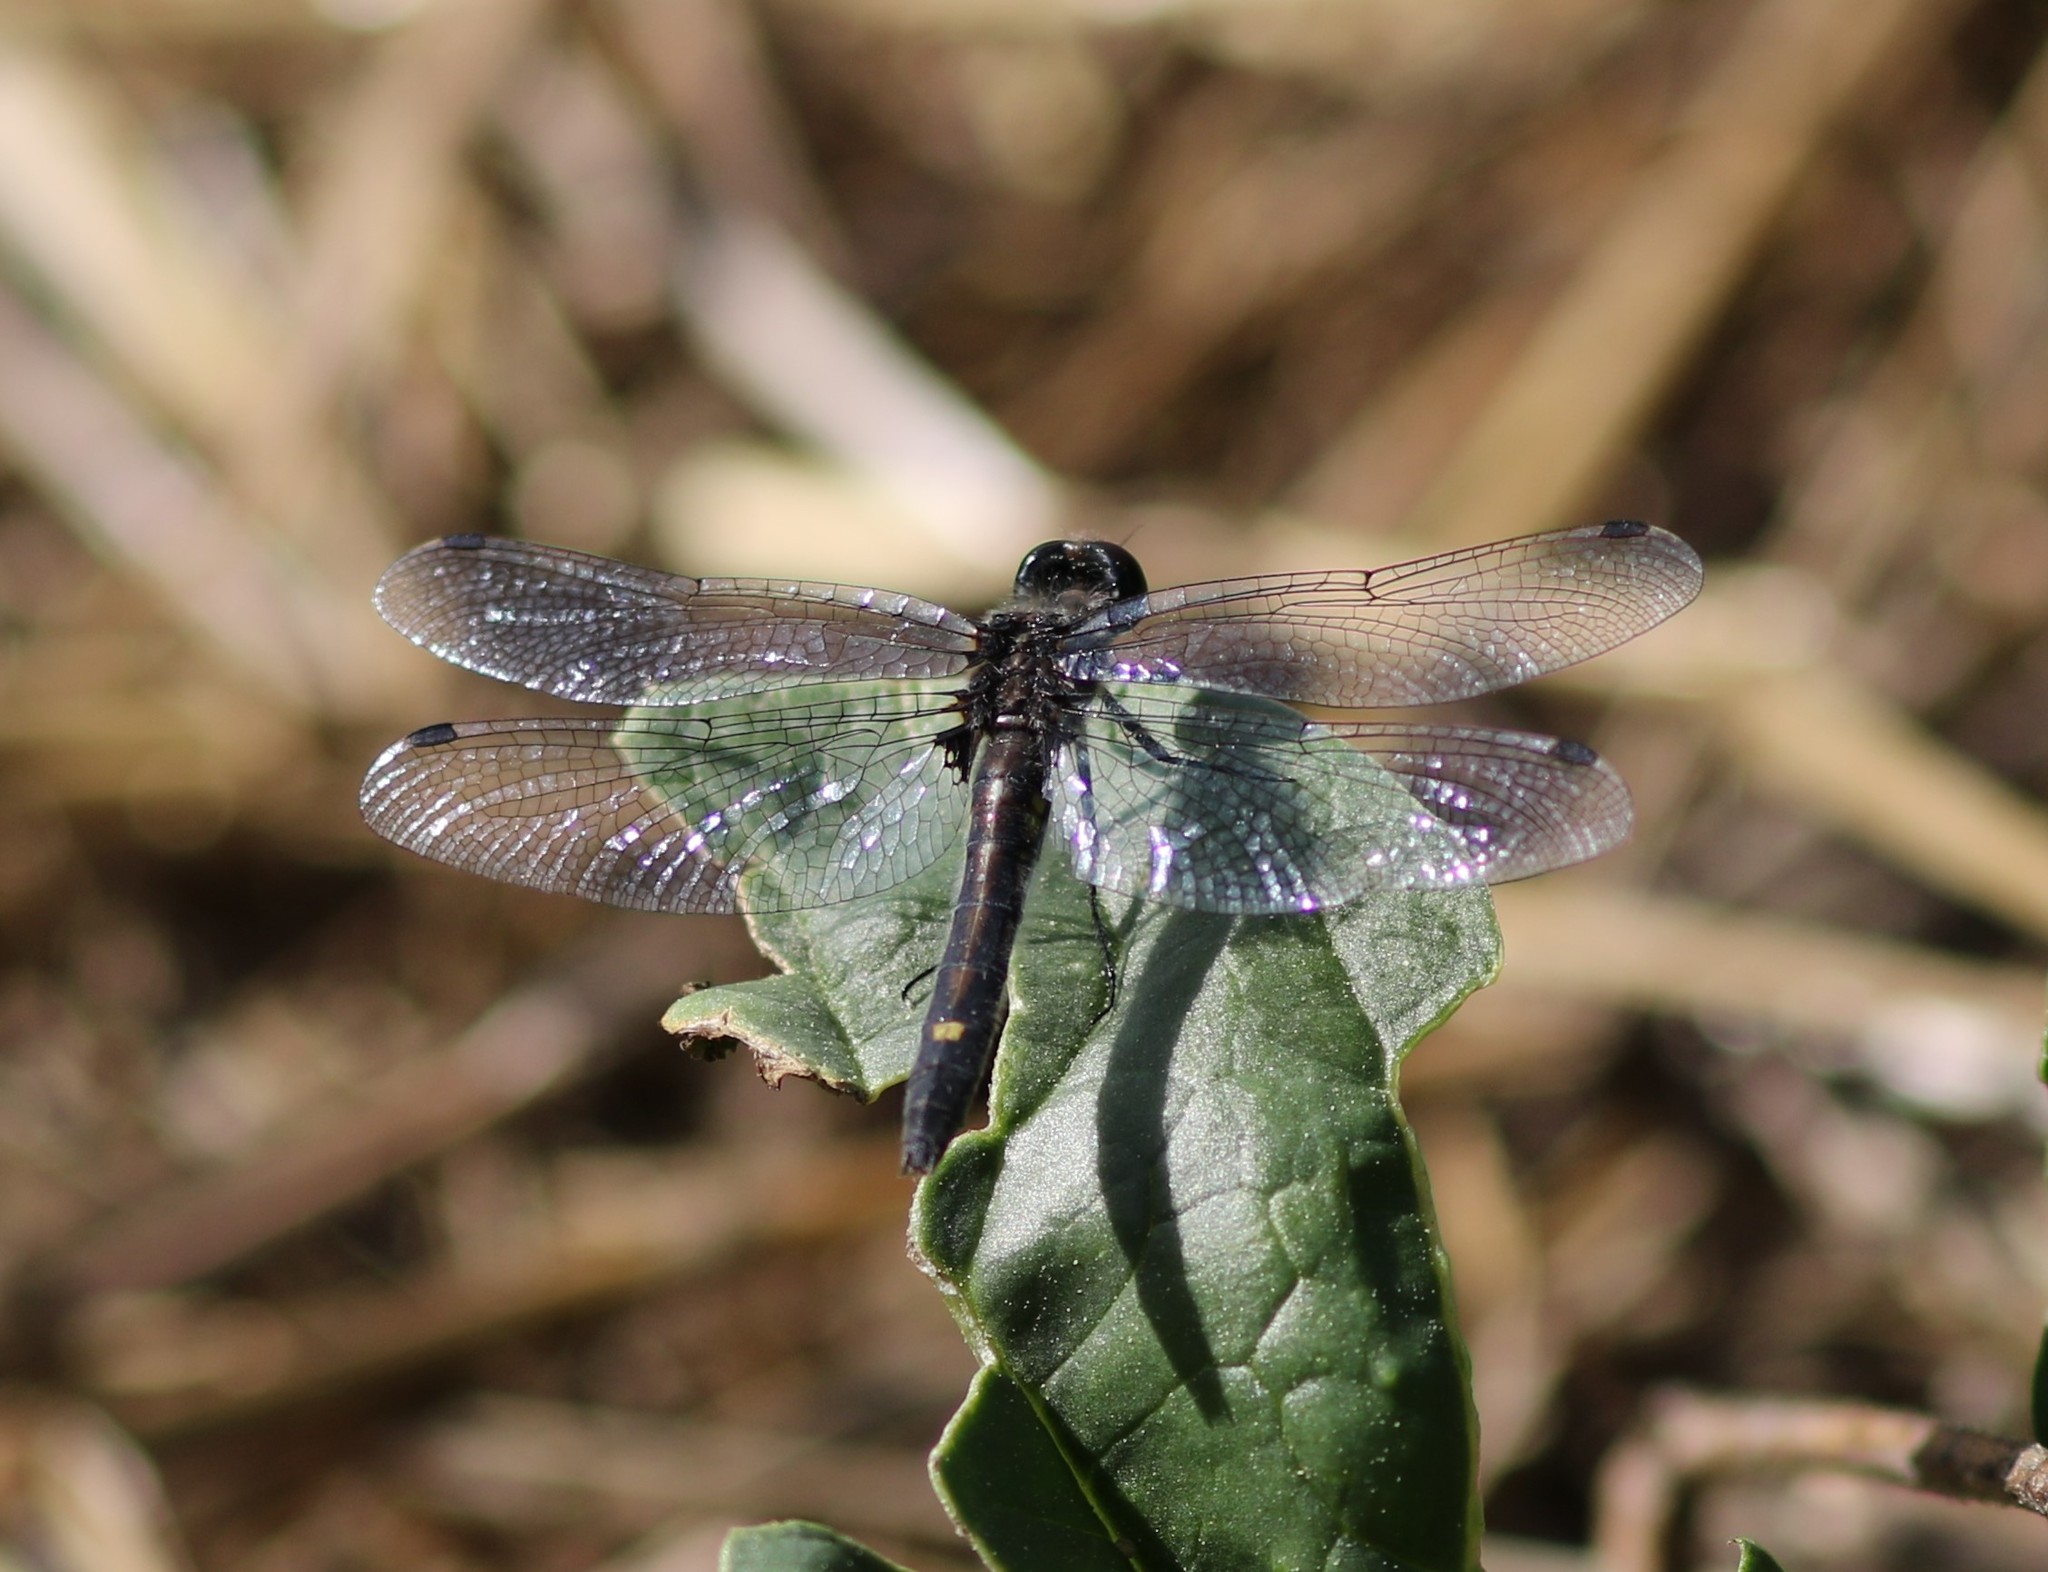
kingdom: Animalia
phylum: Arthropoda
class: Insecta
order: Odonata
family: Libellulidae
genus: Leucorrhinia
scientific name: Leucorrhinia intacta
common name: Dot-tailed whiteface
